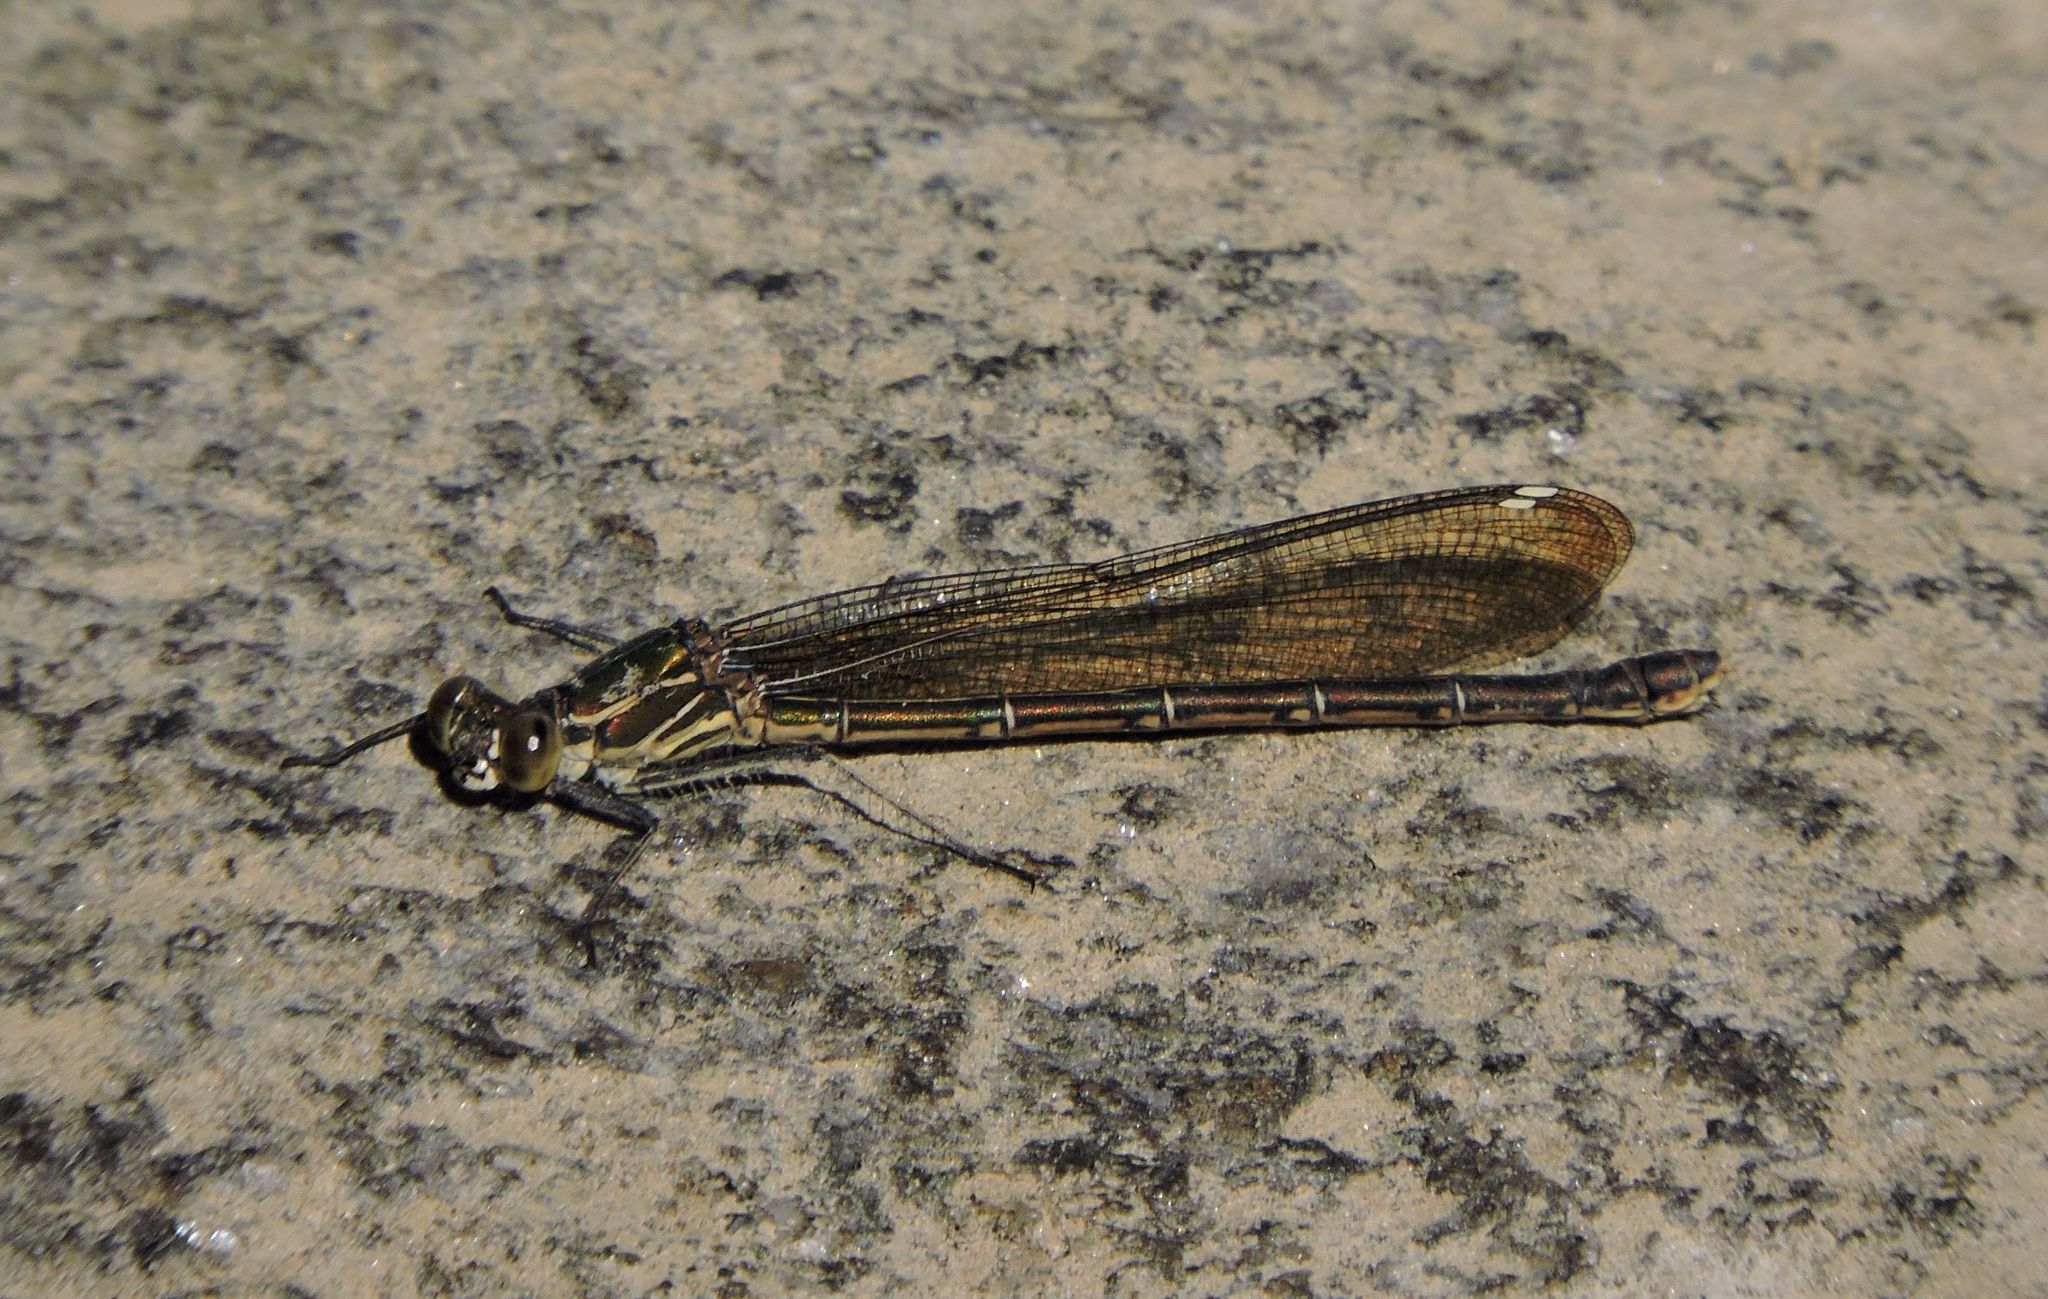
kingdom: Animalia
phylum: Arthropoda
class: Insecta
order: Odonata
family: Calopterygidae
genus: Hetaerina
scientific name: Hetaerina americana
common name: American rubyspot
